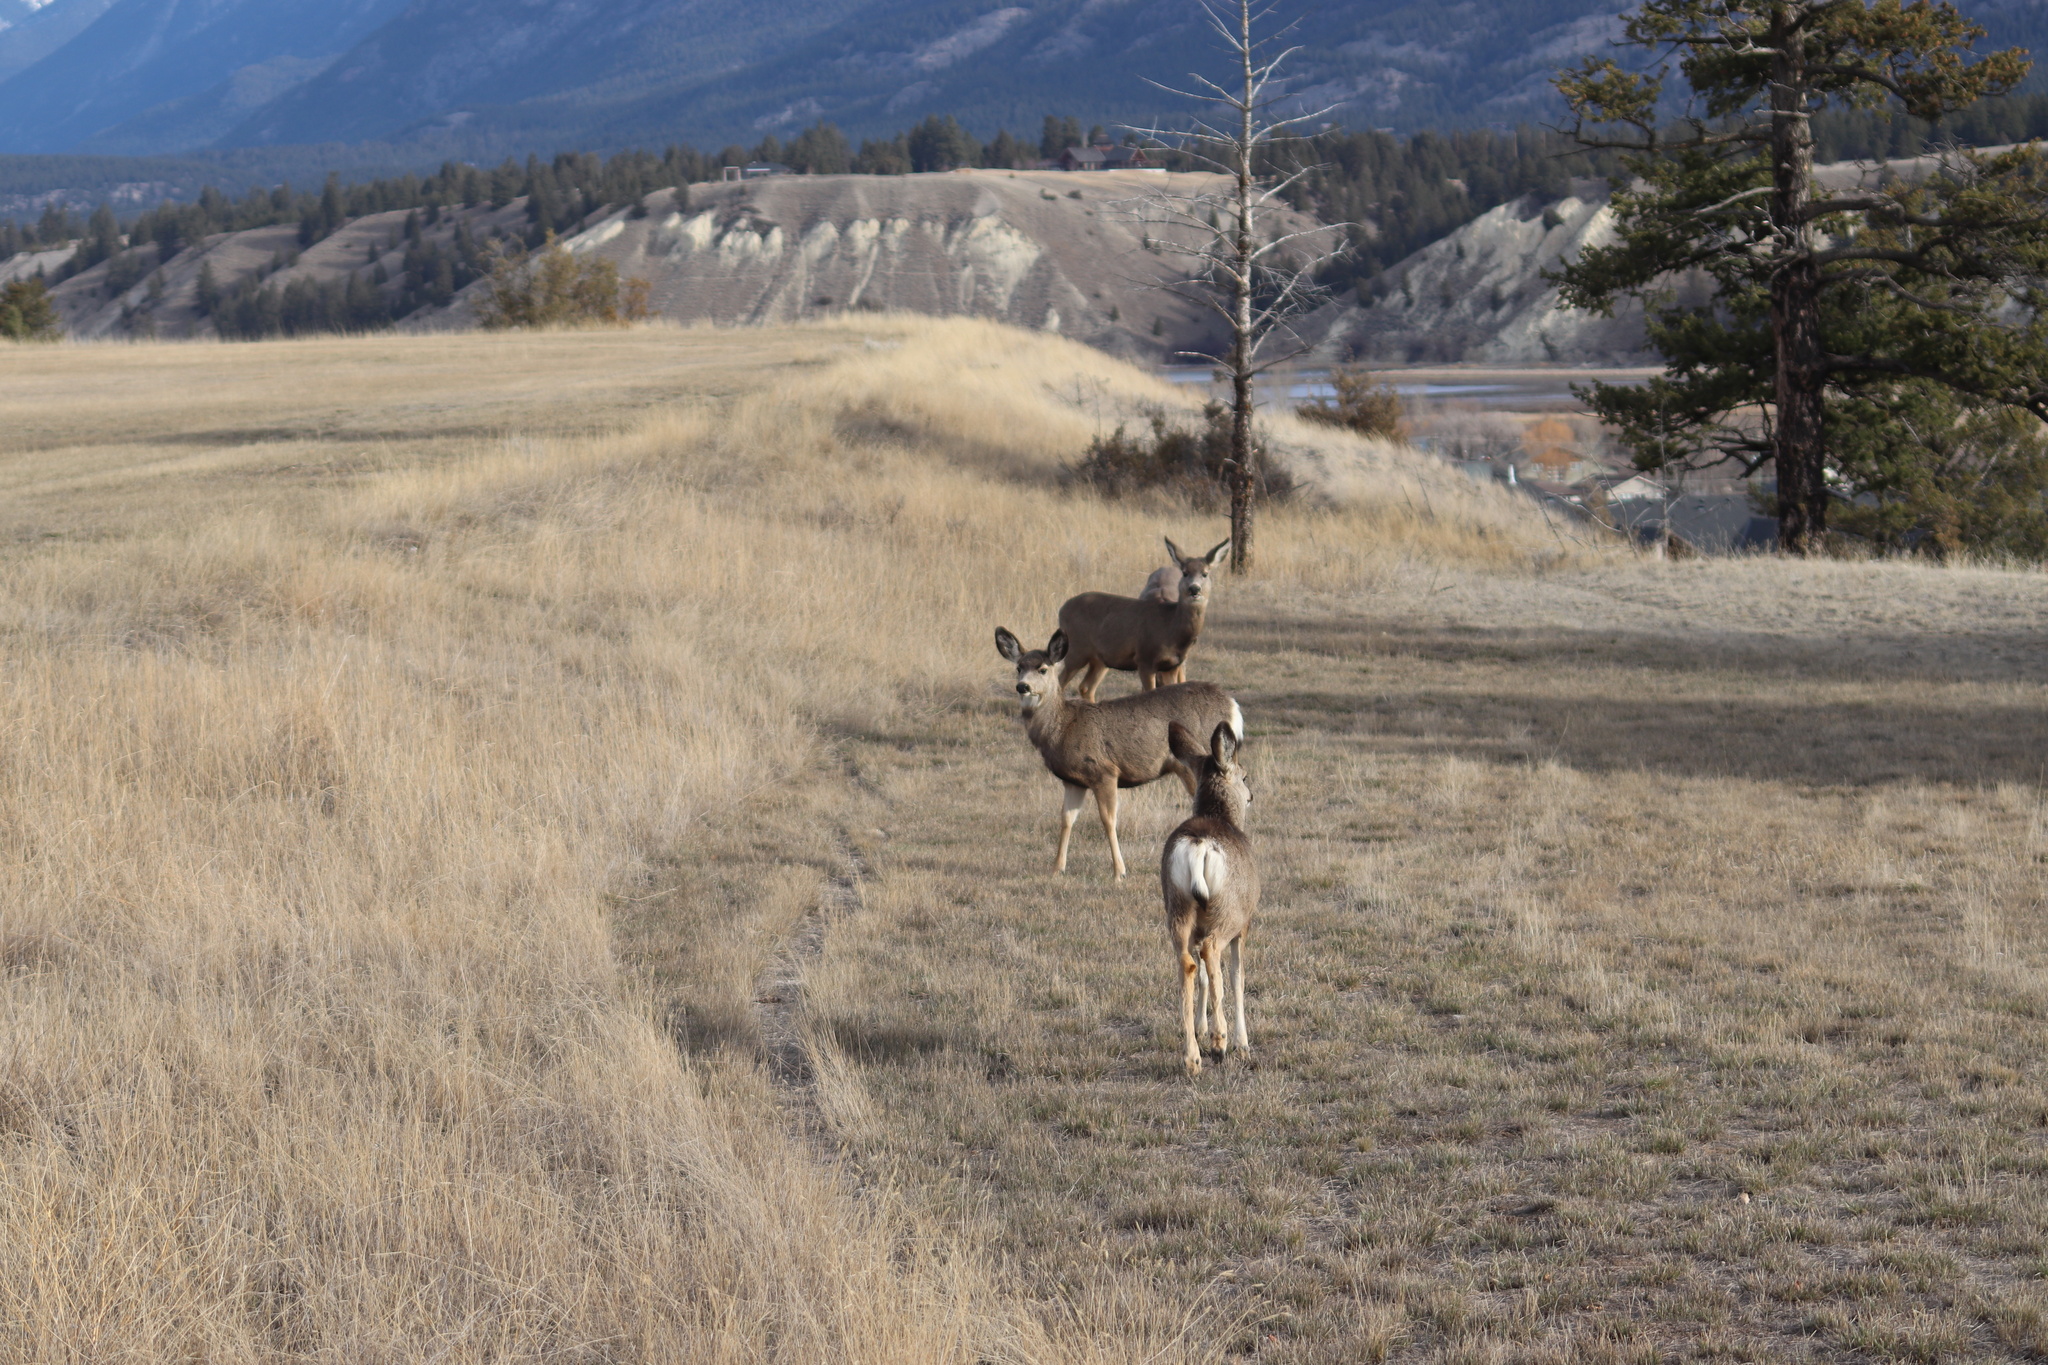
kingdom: Animalia
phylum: Chordata
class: Mammalia
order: Artiodactyla
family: Cervidae
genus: Odocoileus
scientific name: Odocoileus hemionus
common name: Mule deer
